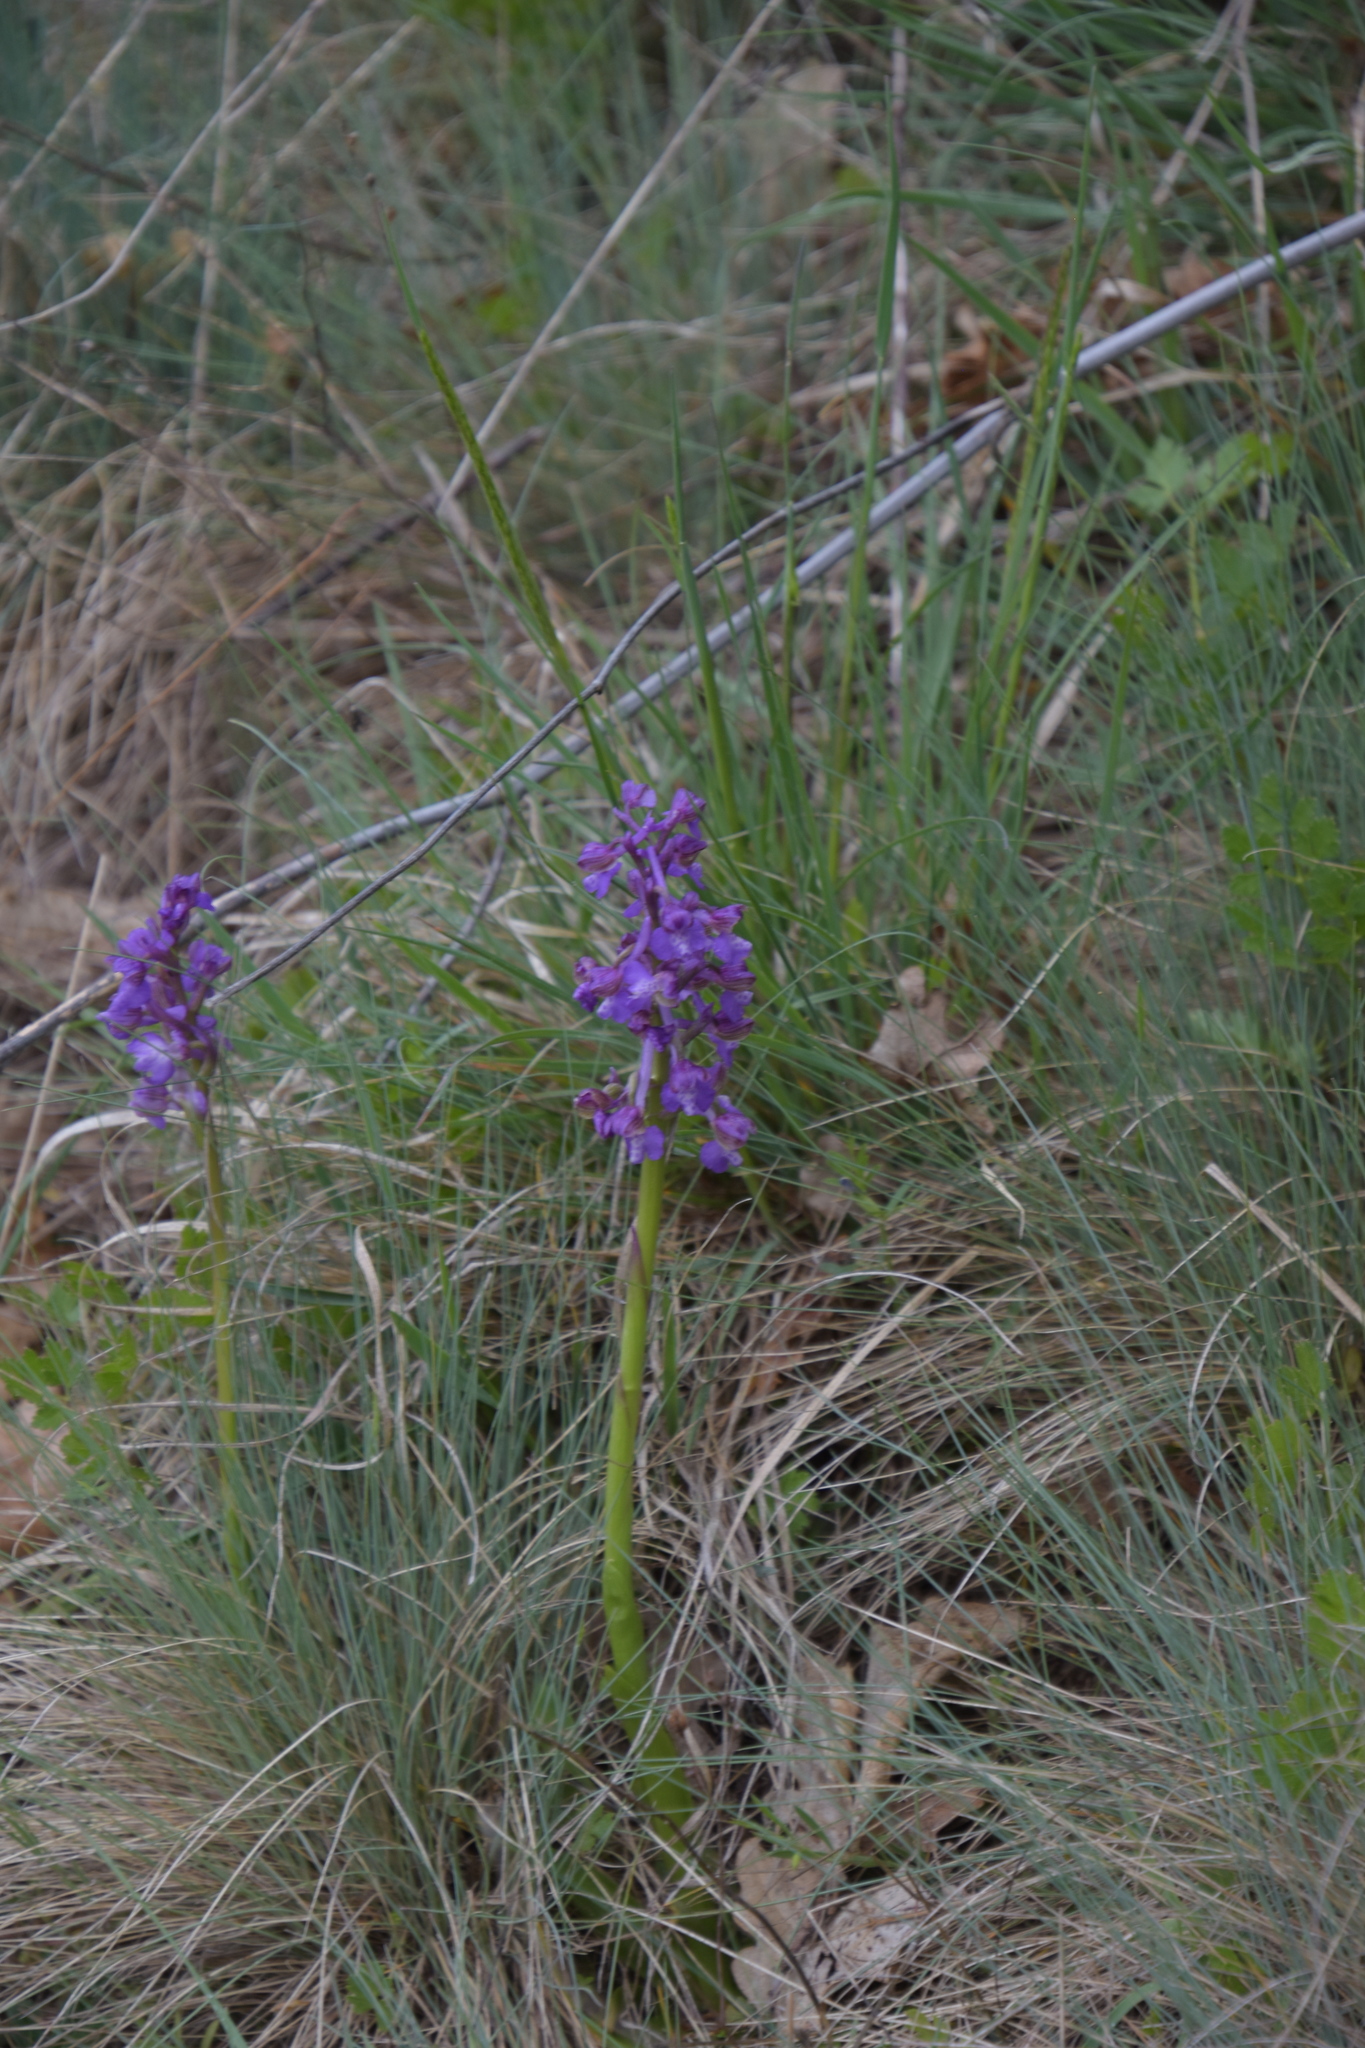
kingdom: Plantae
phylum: Tracheophyta
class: Liliopsida
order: Asparagales
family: Orchidaceae
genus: Anacamptis
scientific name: Anacamptis morio
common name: Green-winged orchid
